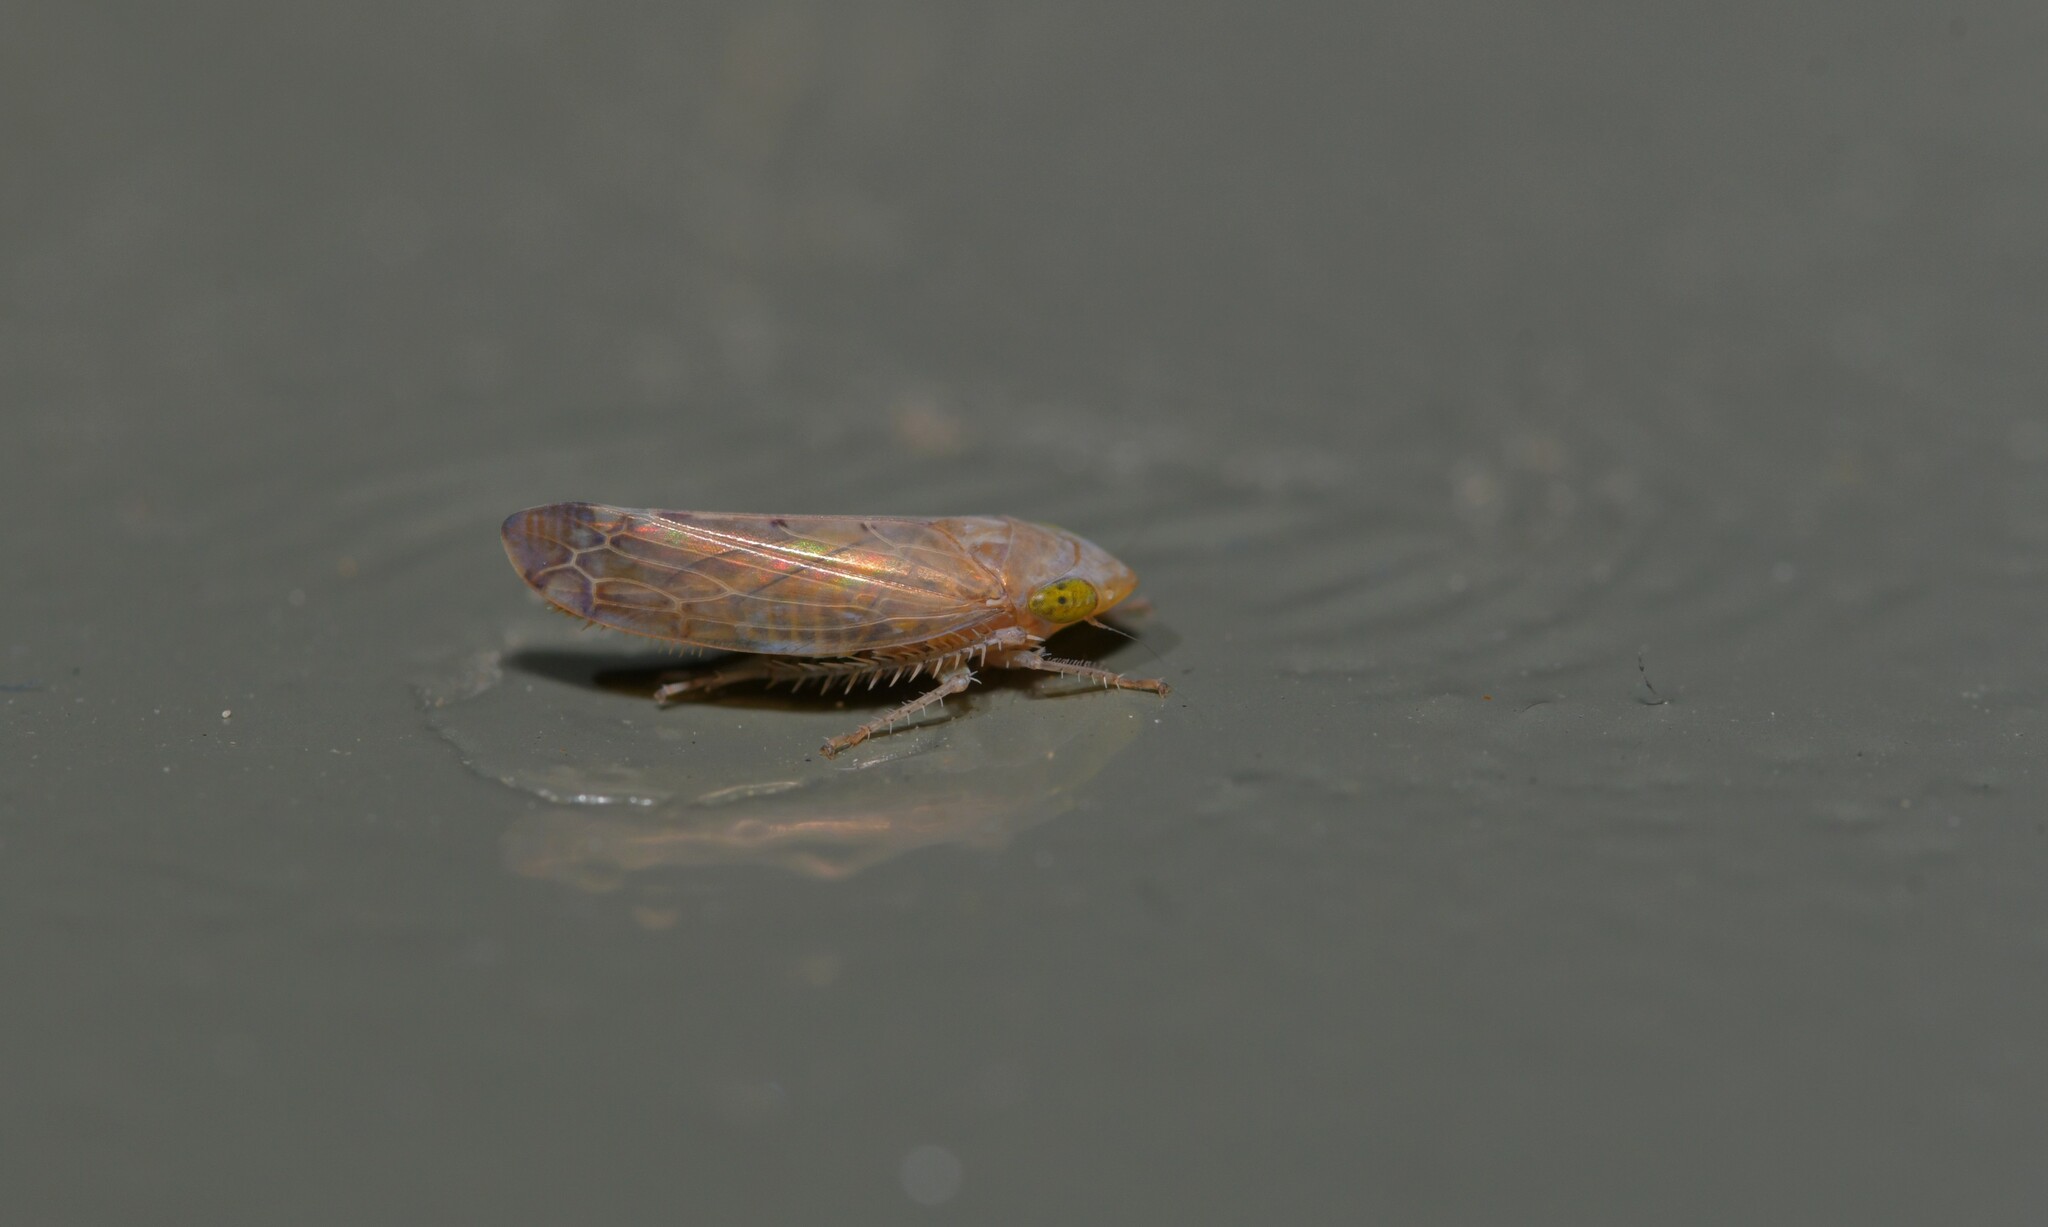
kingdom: Animalia
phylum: Arthropoda
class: Insecta
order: Hemiptera
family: Cicadellidae
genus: Synophropsis
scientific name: Synophropsis lauri
